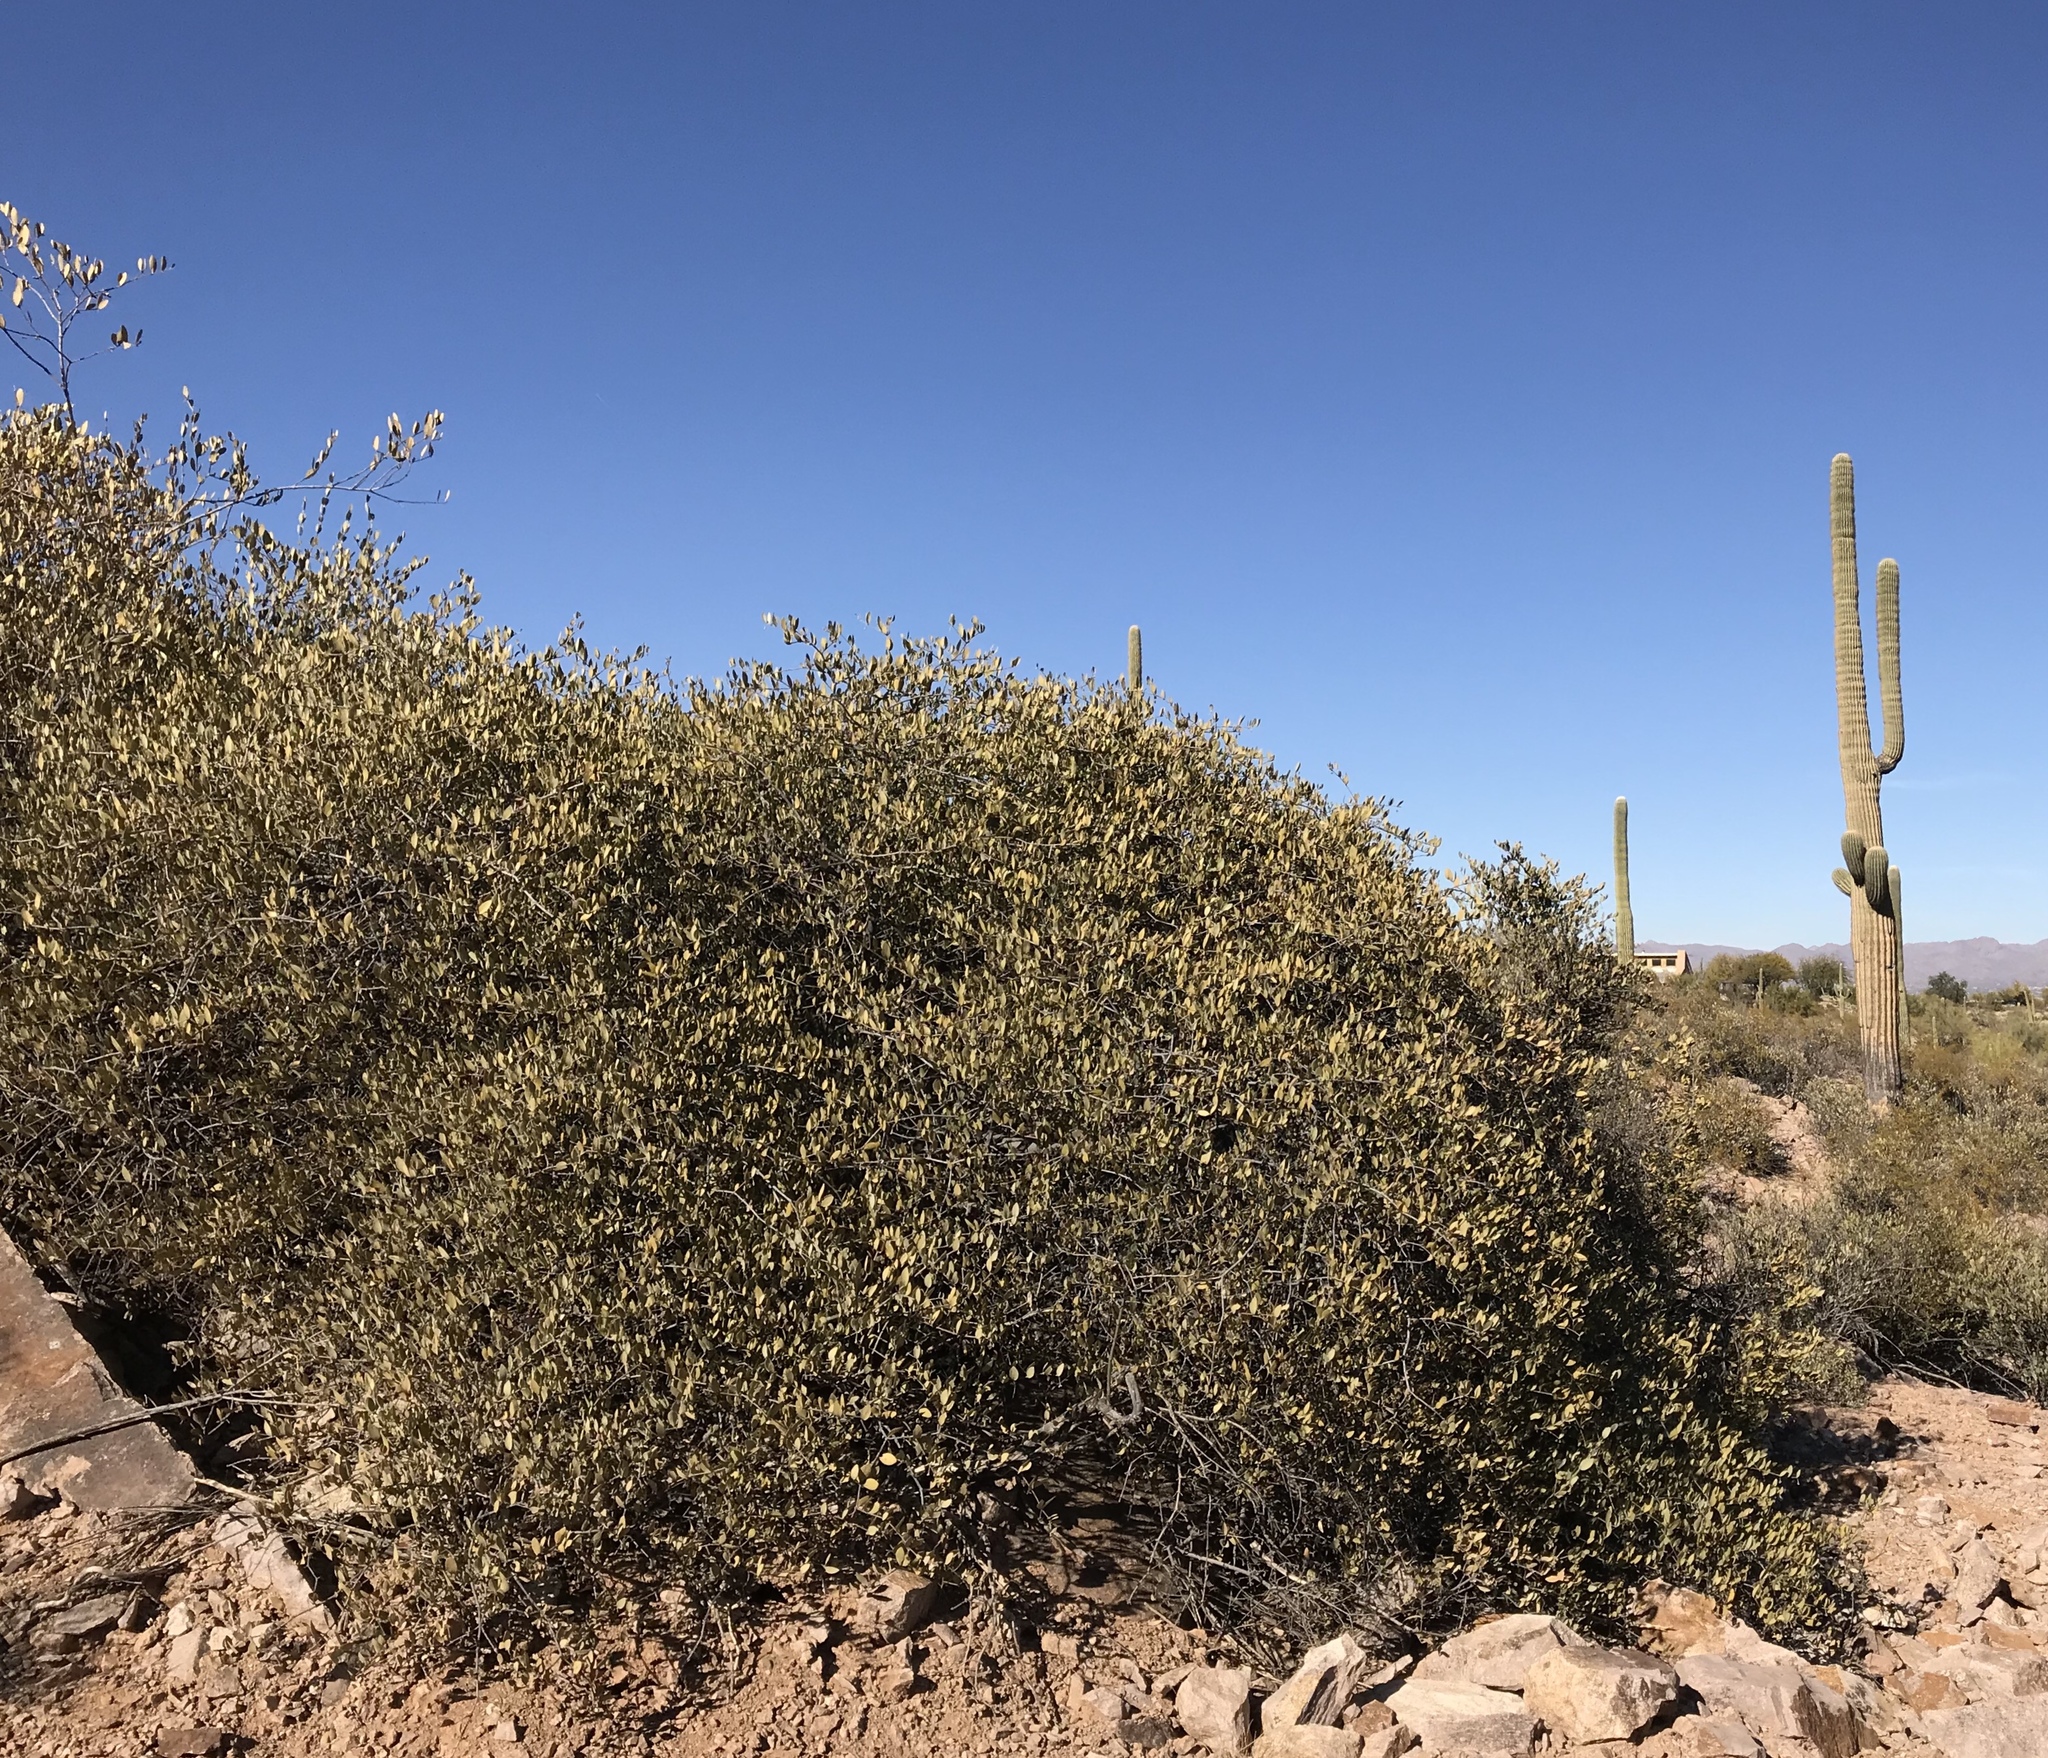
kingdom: Plantae
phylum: Tracheophyta
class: Magnoliopsida
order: Caryophyllales
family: Simmondsiaceae
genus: Simmondsia
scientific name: Simmondsia chinensis
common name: Jojoba
